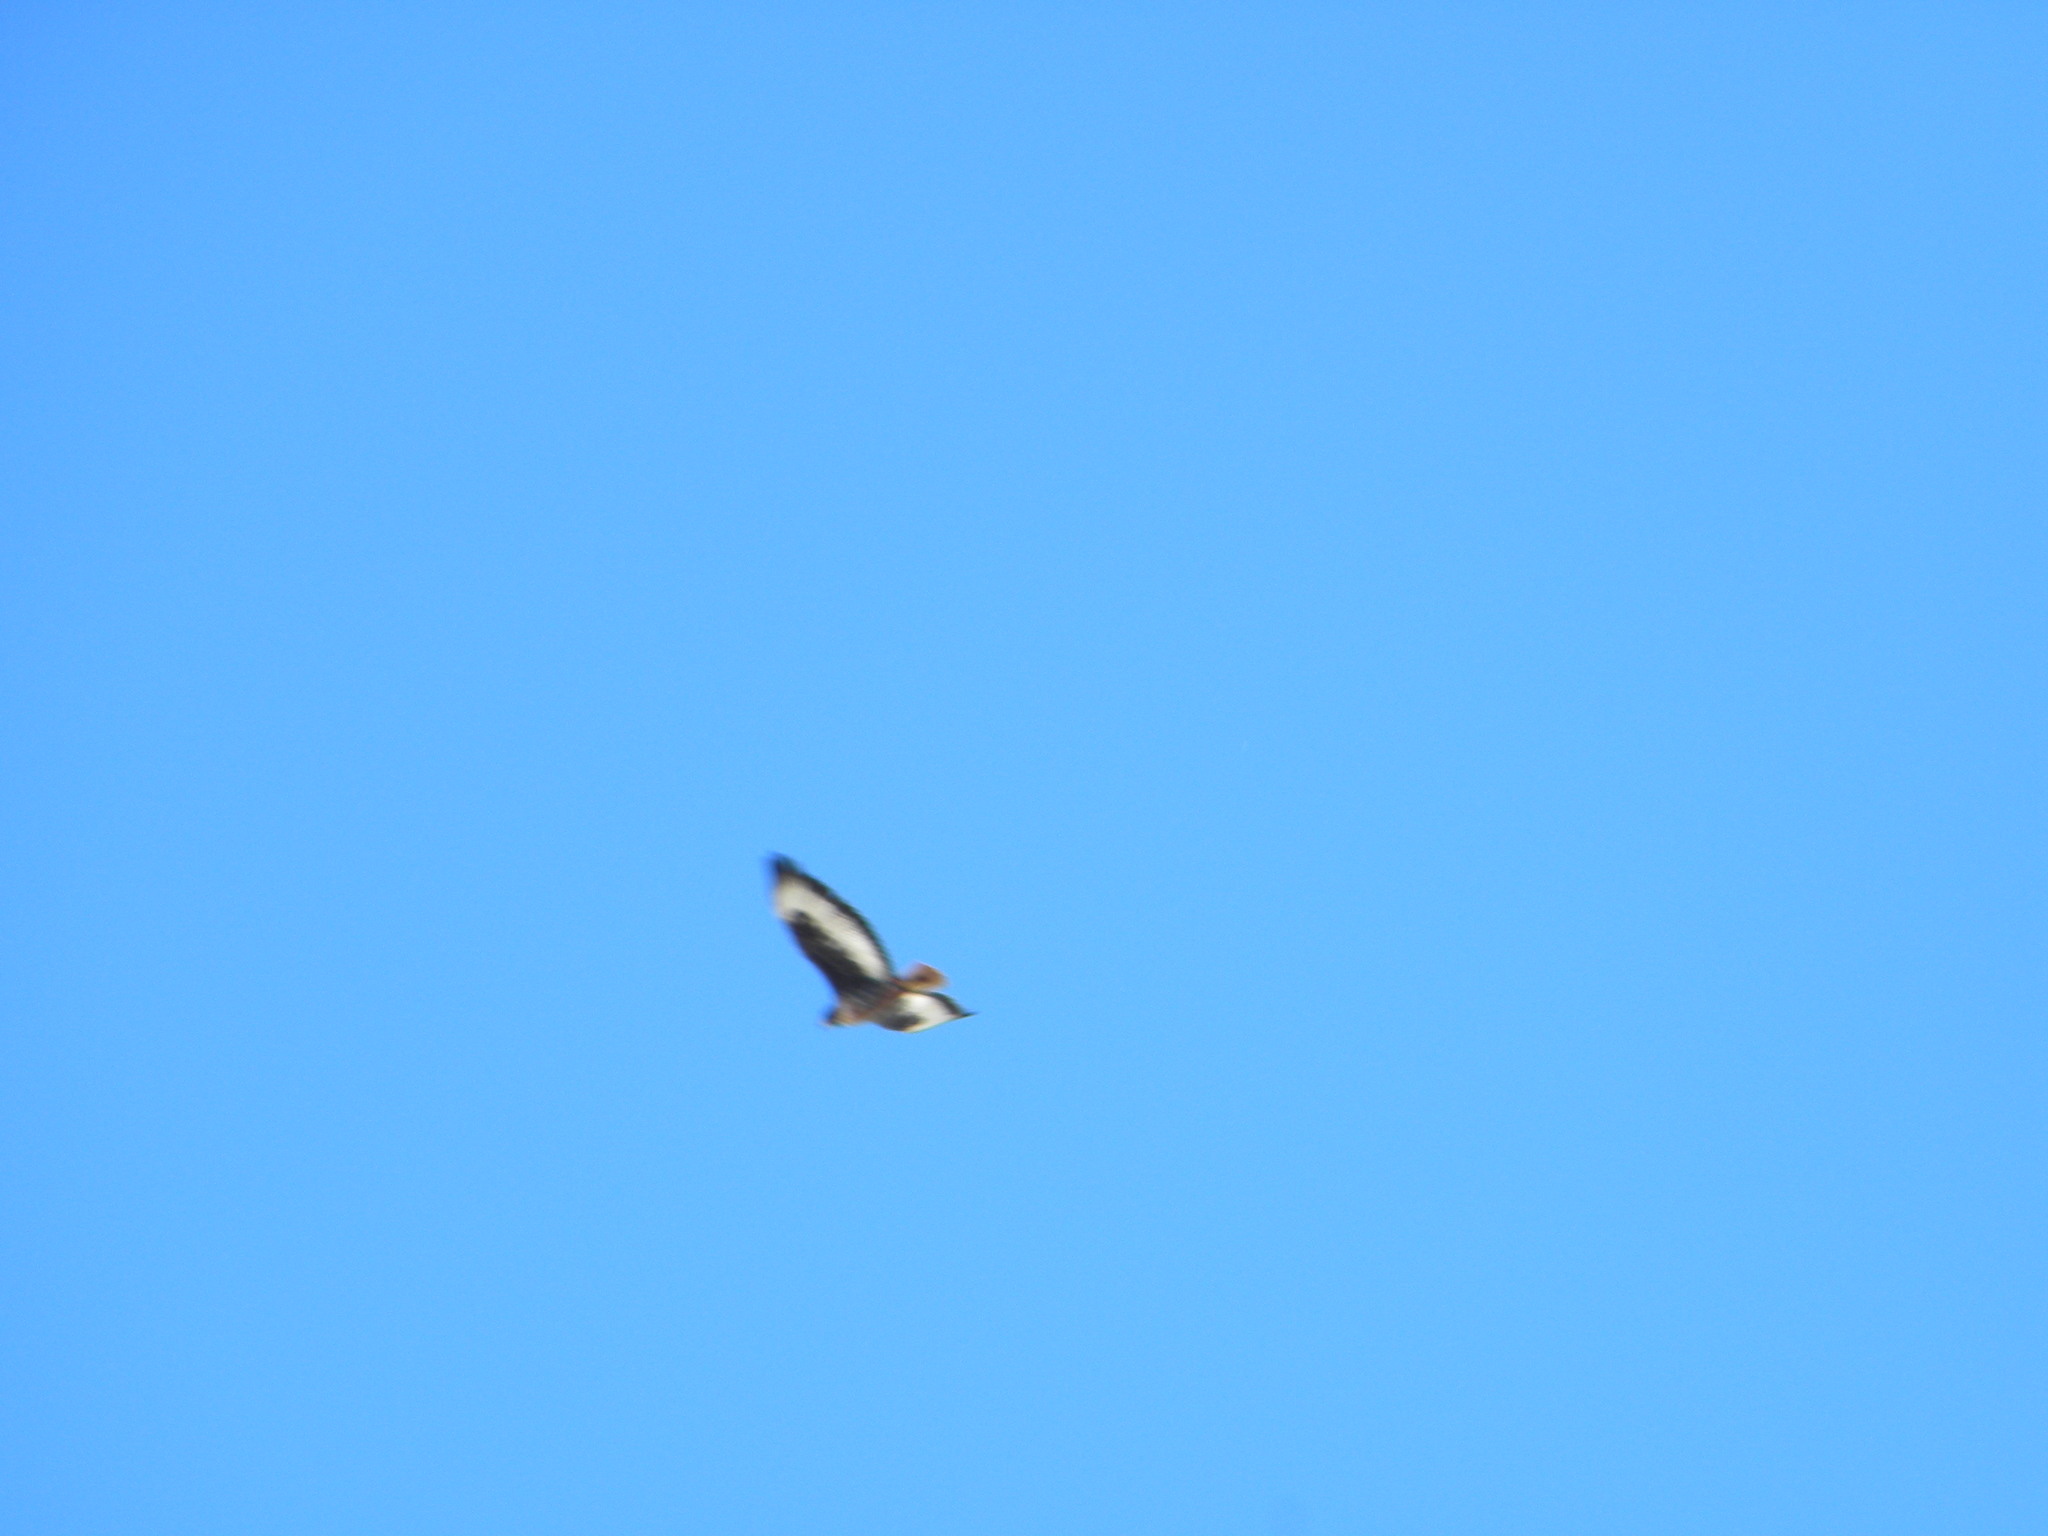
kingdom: Animalia
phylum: Chordata
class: Aves
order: Accipitriformes
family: Accipitridae
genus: Buteo
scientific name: Buteo rufofuscus
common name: Jackal buzzard
